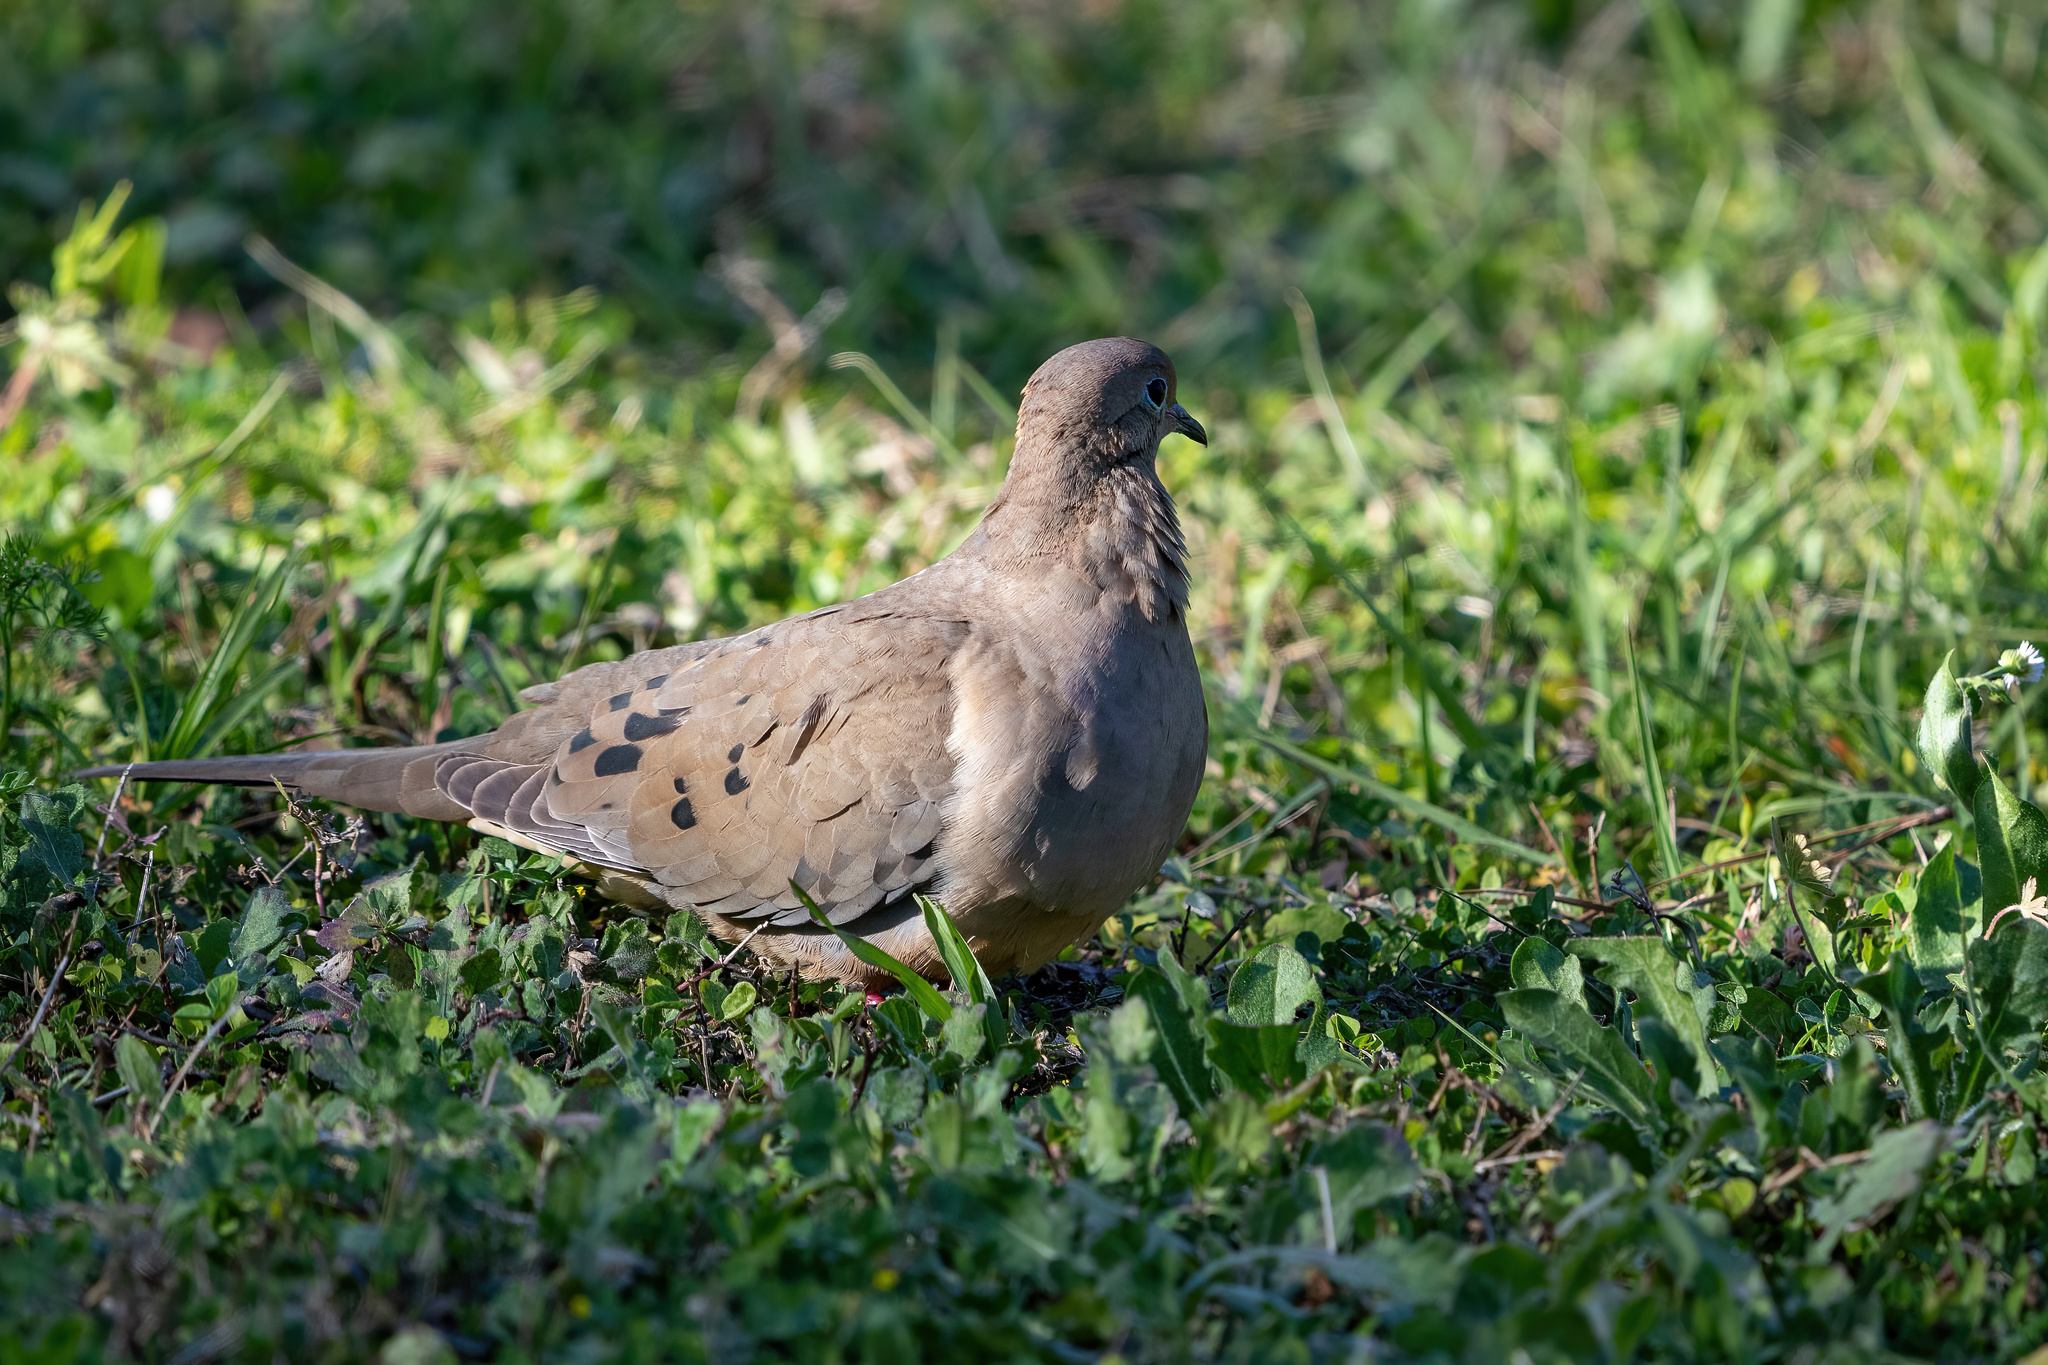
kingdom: Animalia
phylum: Chordata
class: Aves
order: Columbiformes
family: Columbidae
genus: Zenaida
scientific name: Zenaida macroura
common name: Mourning dove
